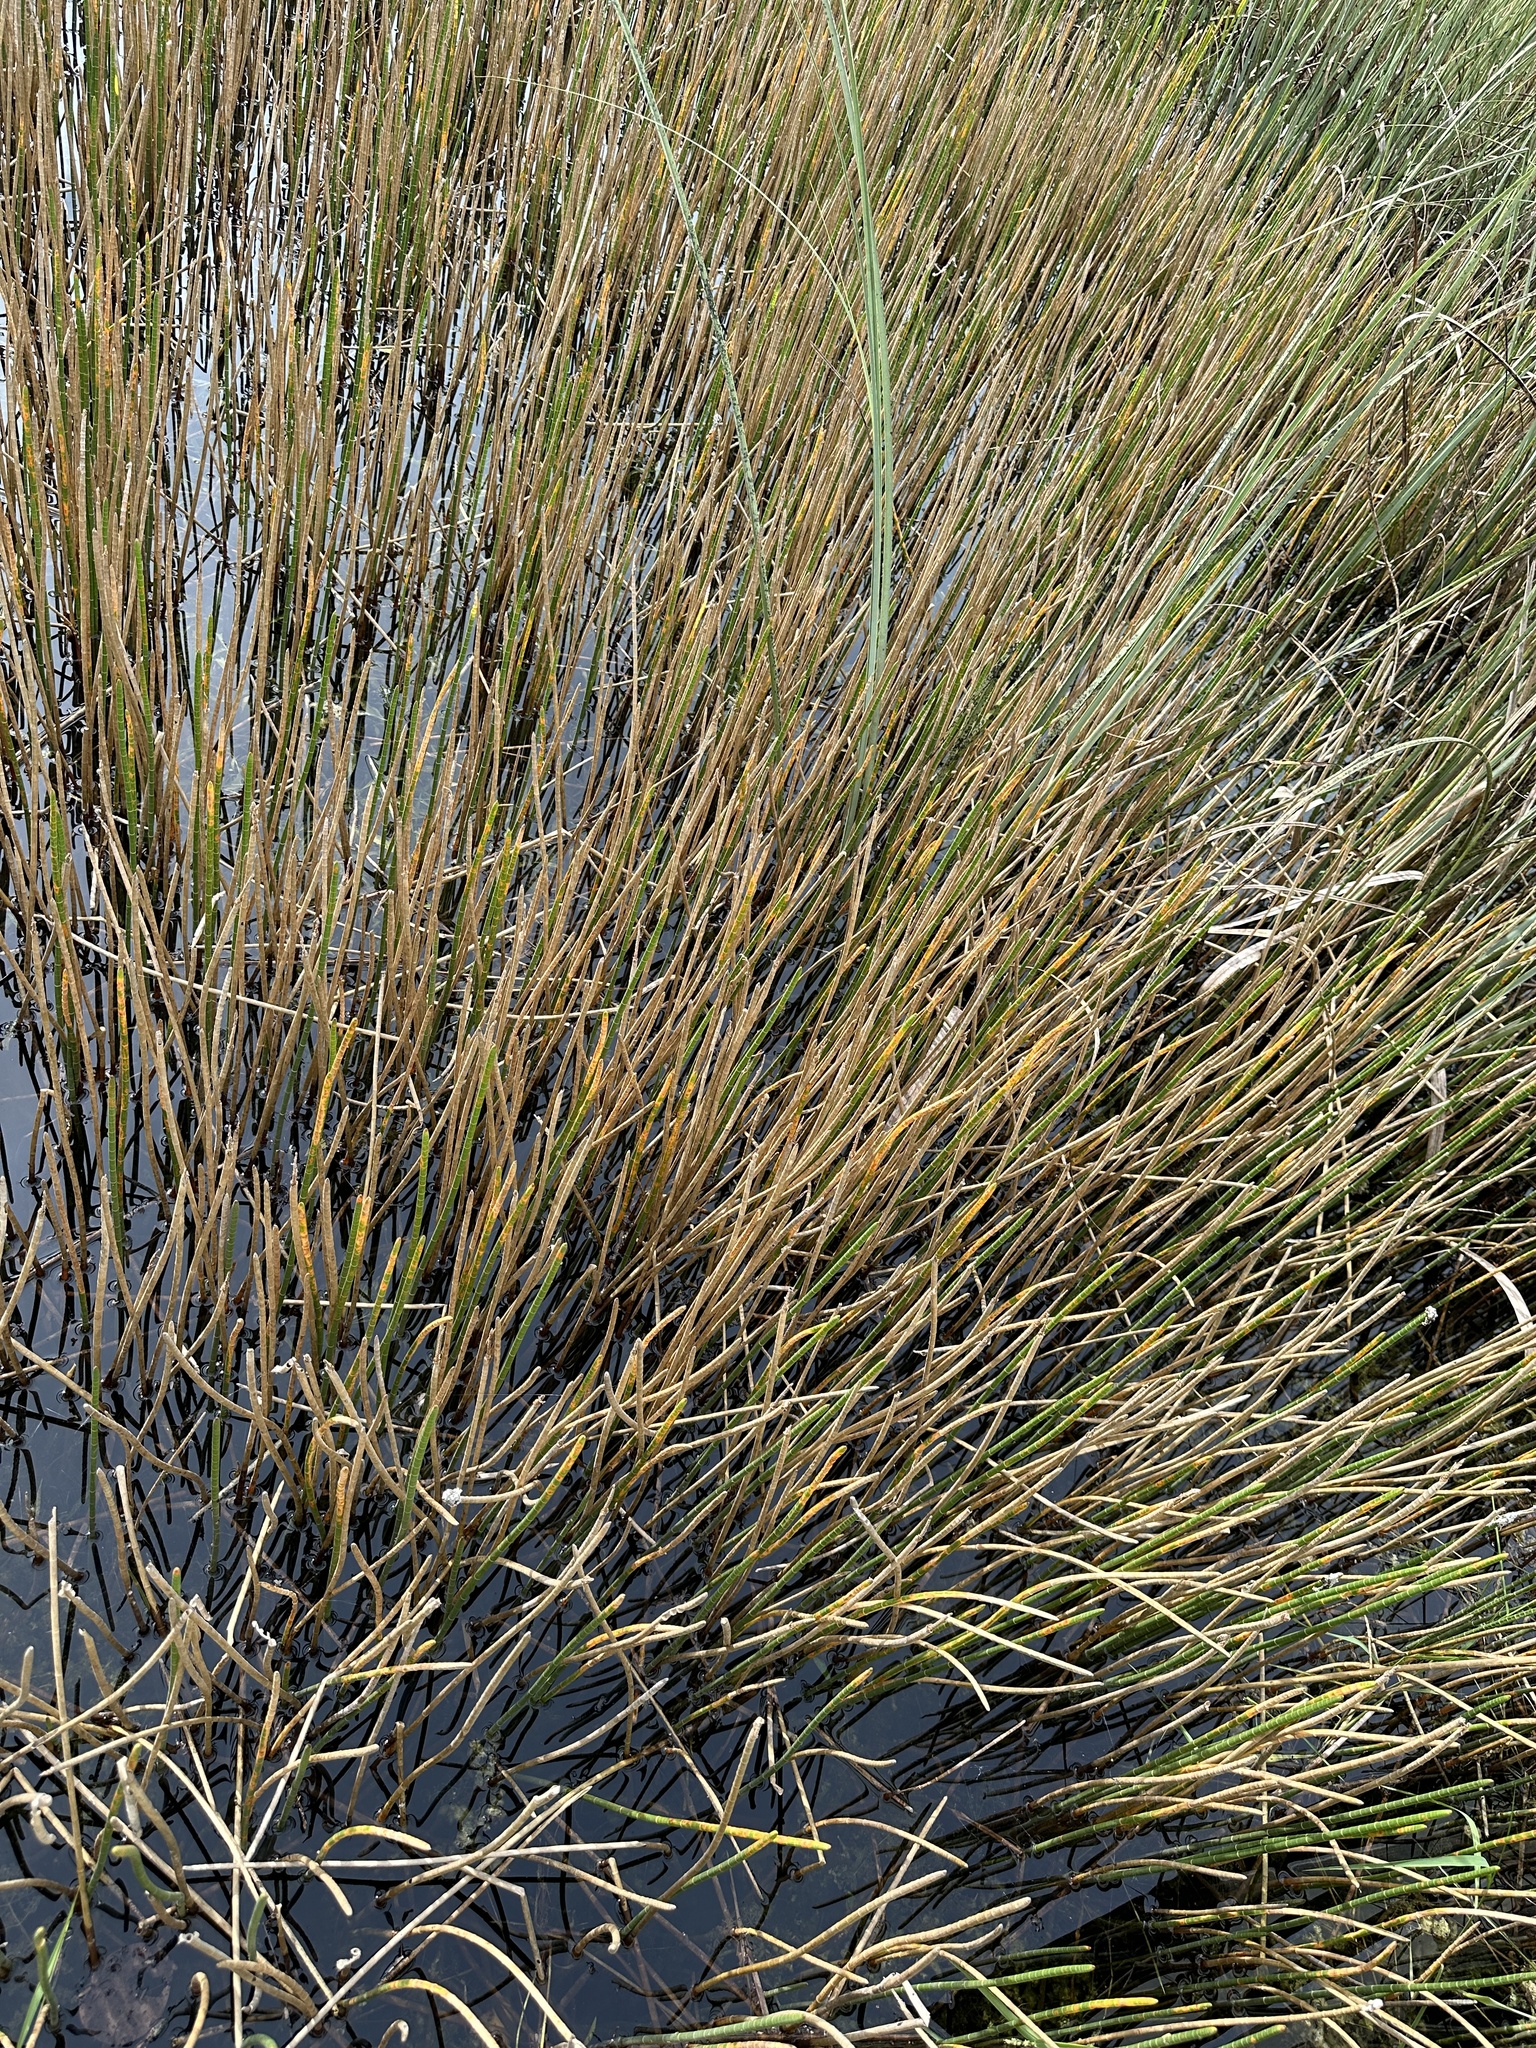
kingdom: Plantae
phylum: Tracheophyta
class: Liliopsida
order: Poales
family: Cyperaceae
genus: Eleocharis
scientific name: Eleocharis interstincta
